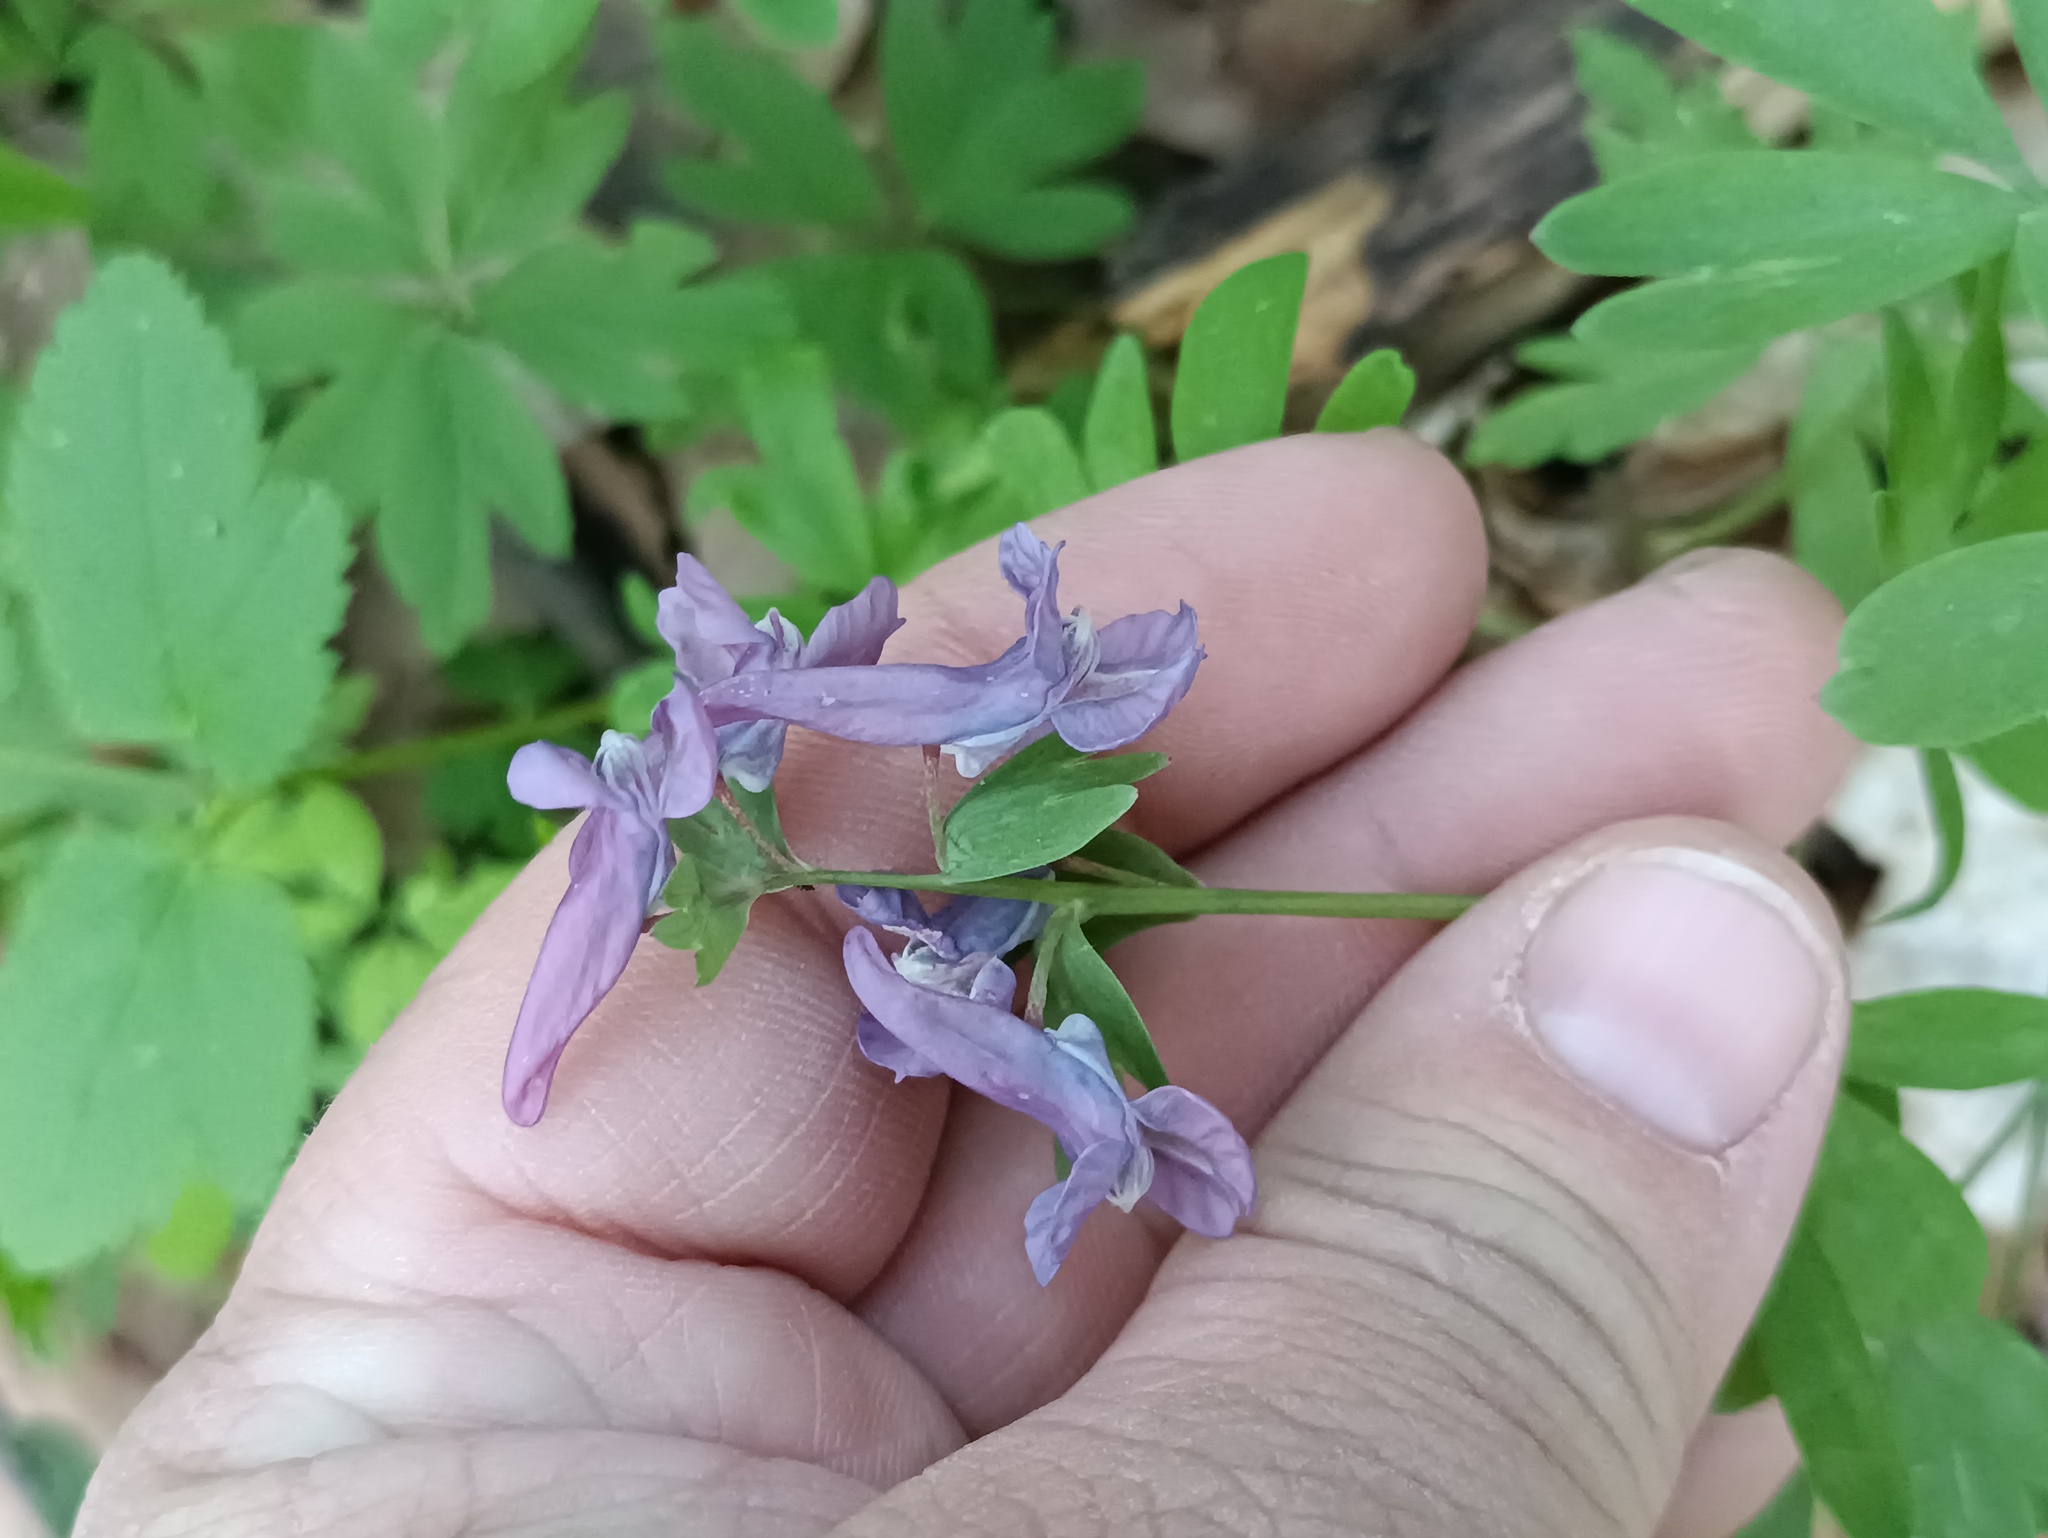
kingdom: Plantae
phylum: Tracheophyta
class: Magnoliopsida
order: Ranunculales
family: Papaveraceae
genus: Corydalis
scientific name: Corydalis solida
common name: Bird-in-a-bush
